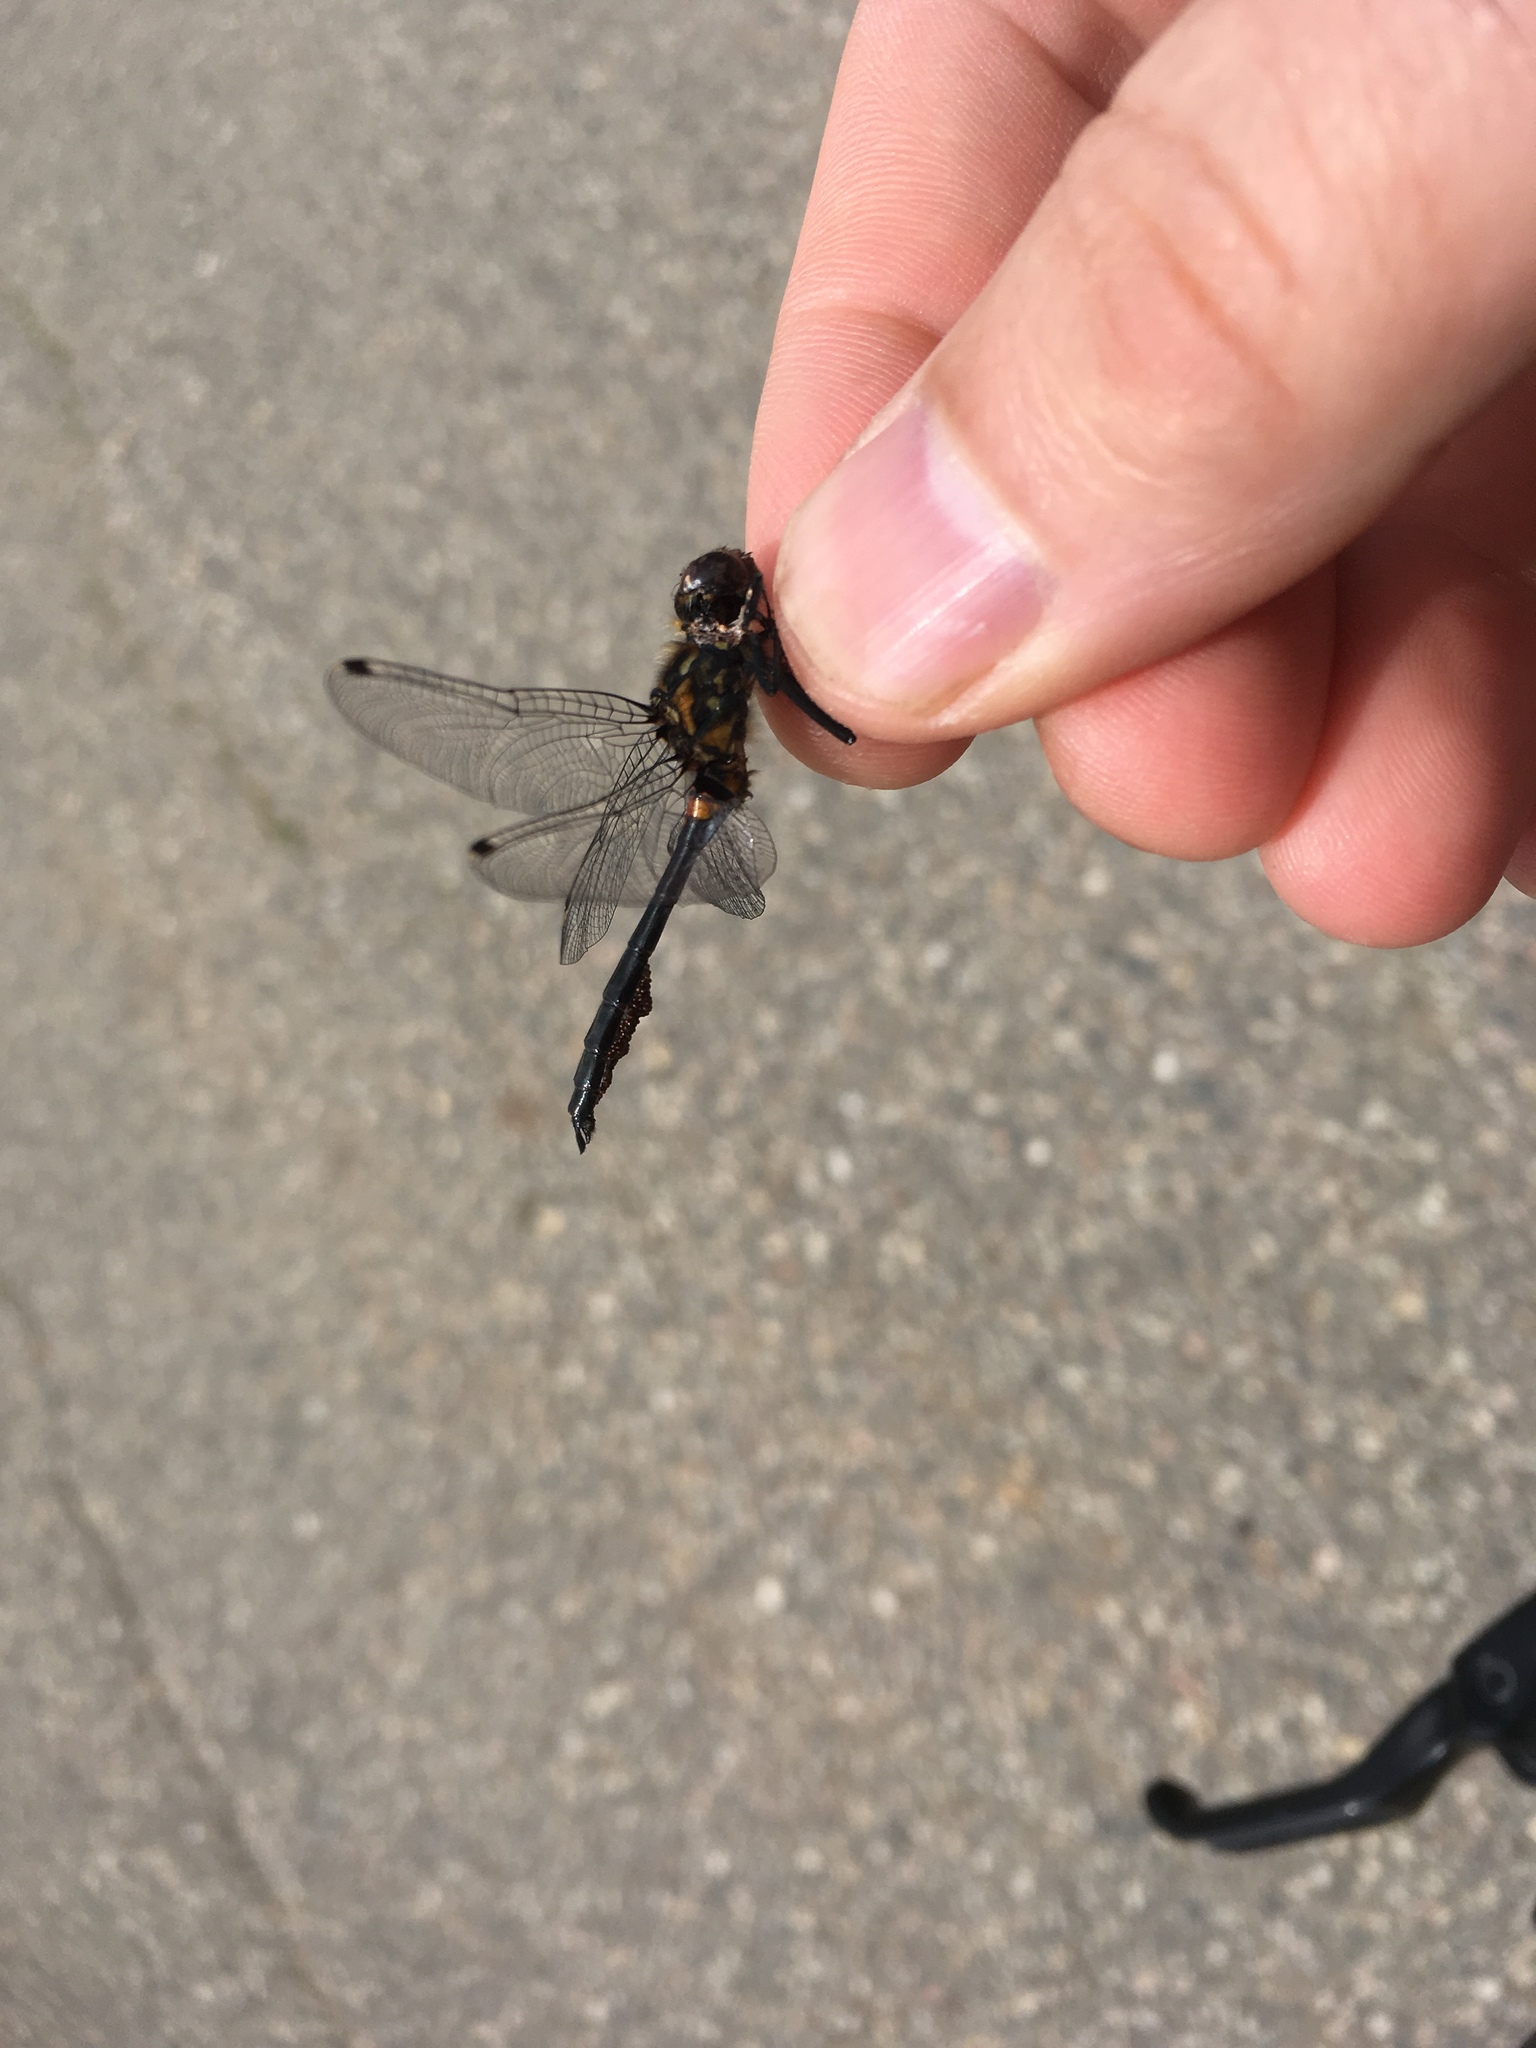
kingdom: Animalia
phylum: Arthropoda
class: Insecta
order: Odonata
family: Libellulidae
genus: Leucorrhinia
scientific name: Leucorrhinia proxima
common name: Belted whiteface
